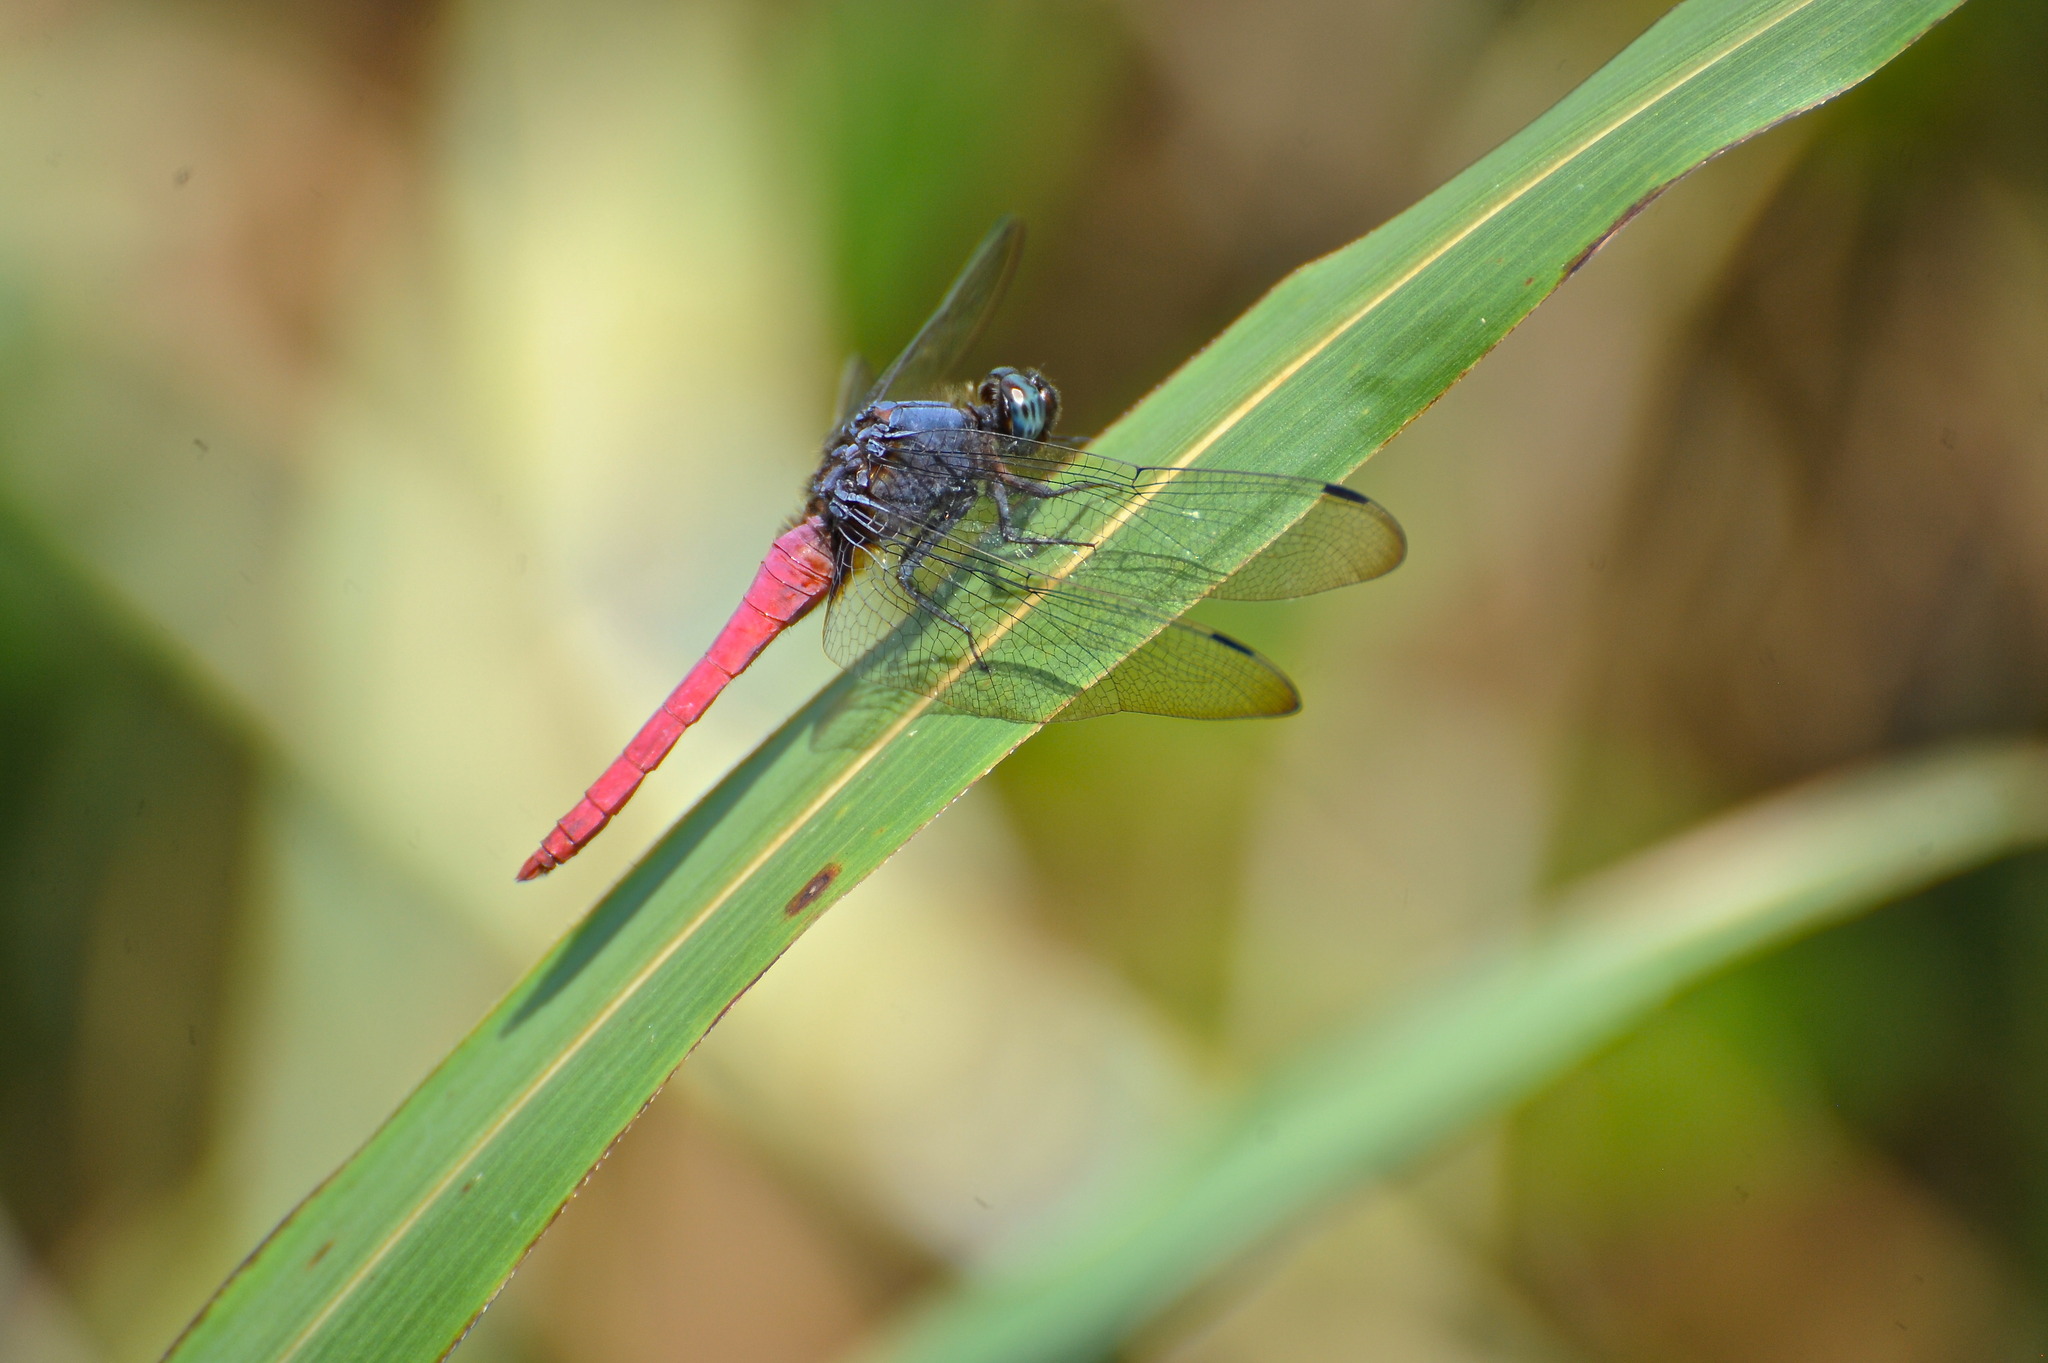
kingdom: Animalia
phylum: Arthropoda
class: Insecta
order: Odonata
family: Libellulidae
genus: Orthetrum
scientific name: Orthetrum pruinosum
